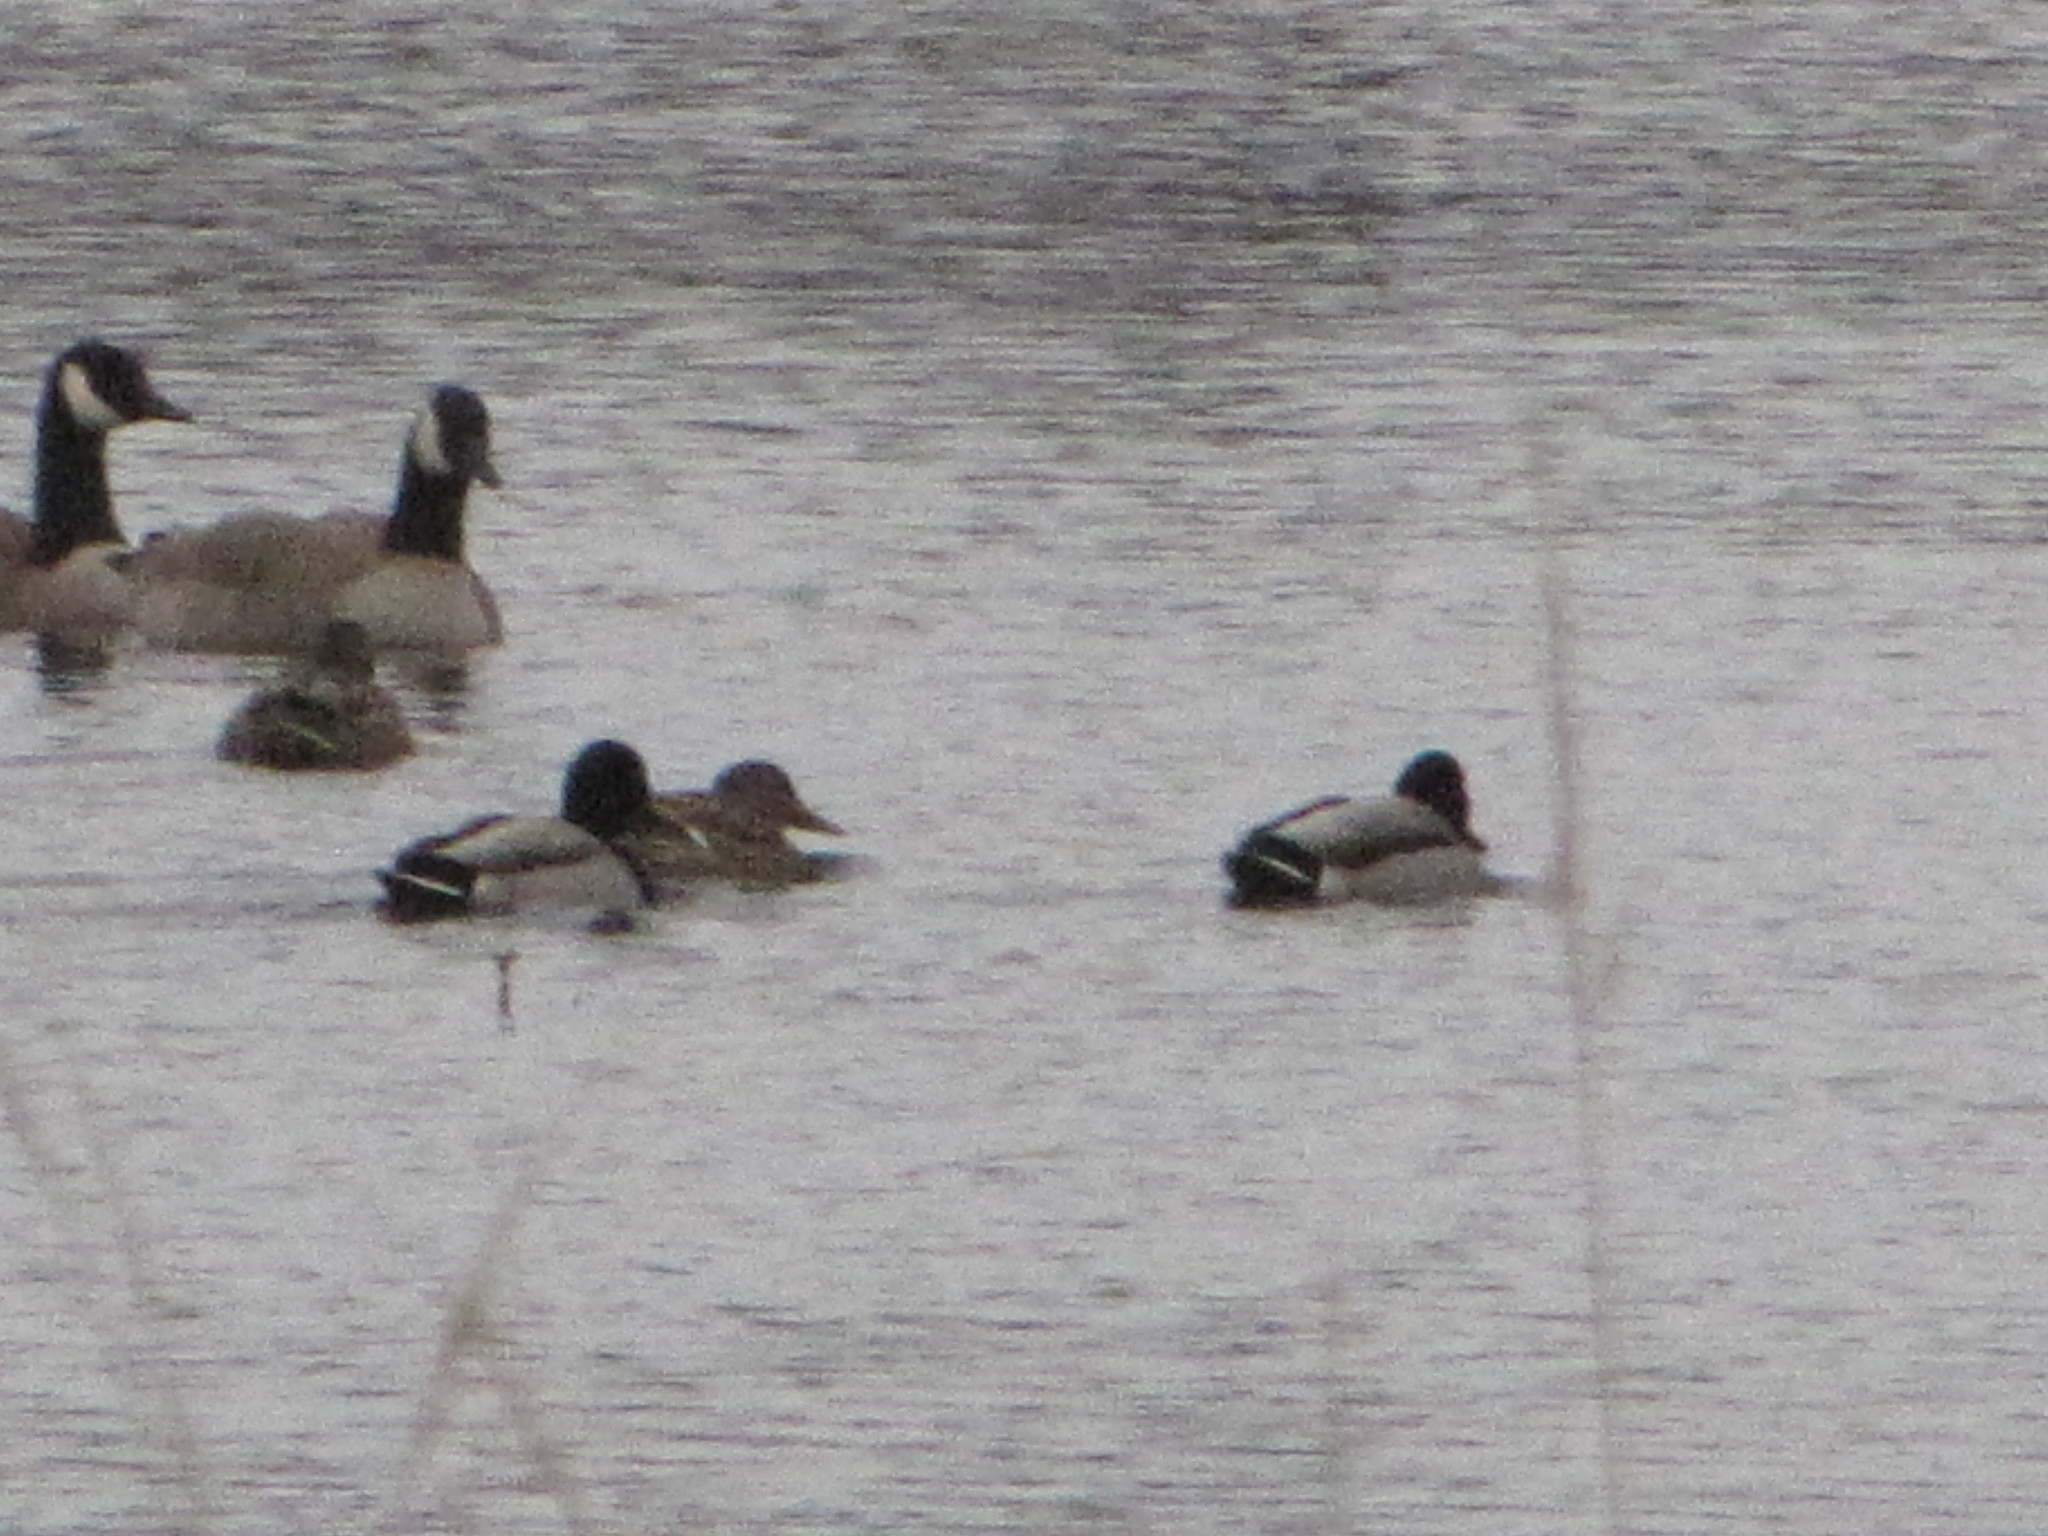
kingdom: Animalia
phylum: Chordata
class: Aves
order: Anseriformes
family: Anatidae
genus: Branta
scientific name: Branta canadensis
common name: Canada goose
